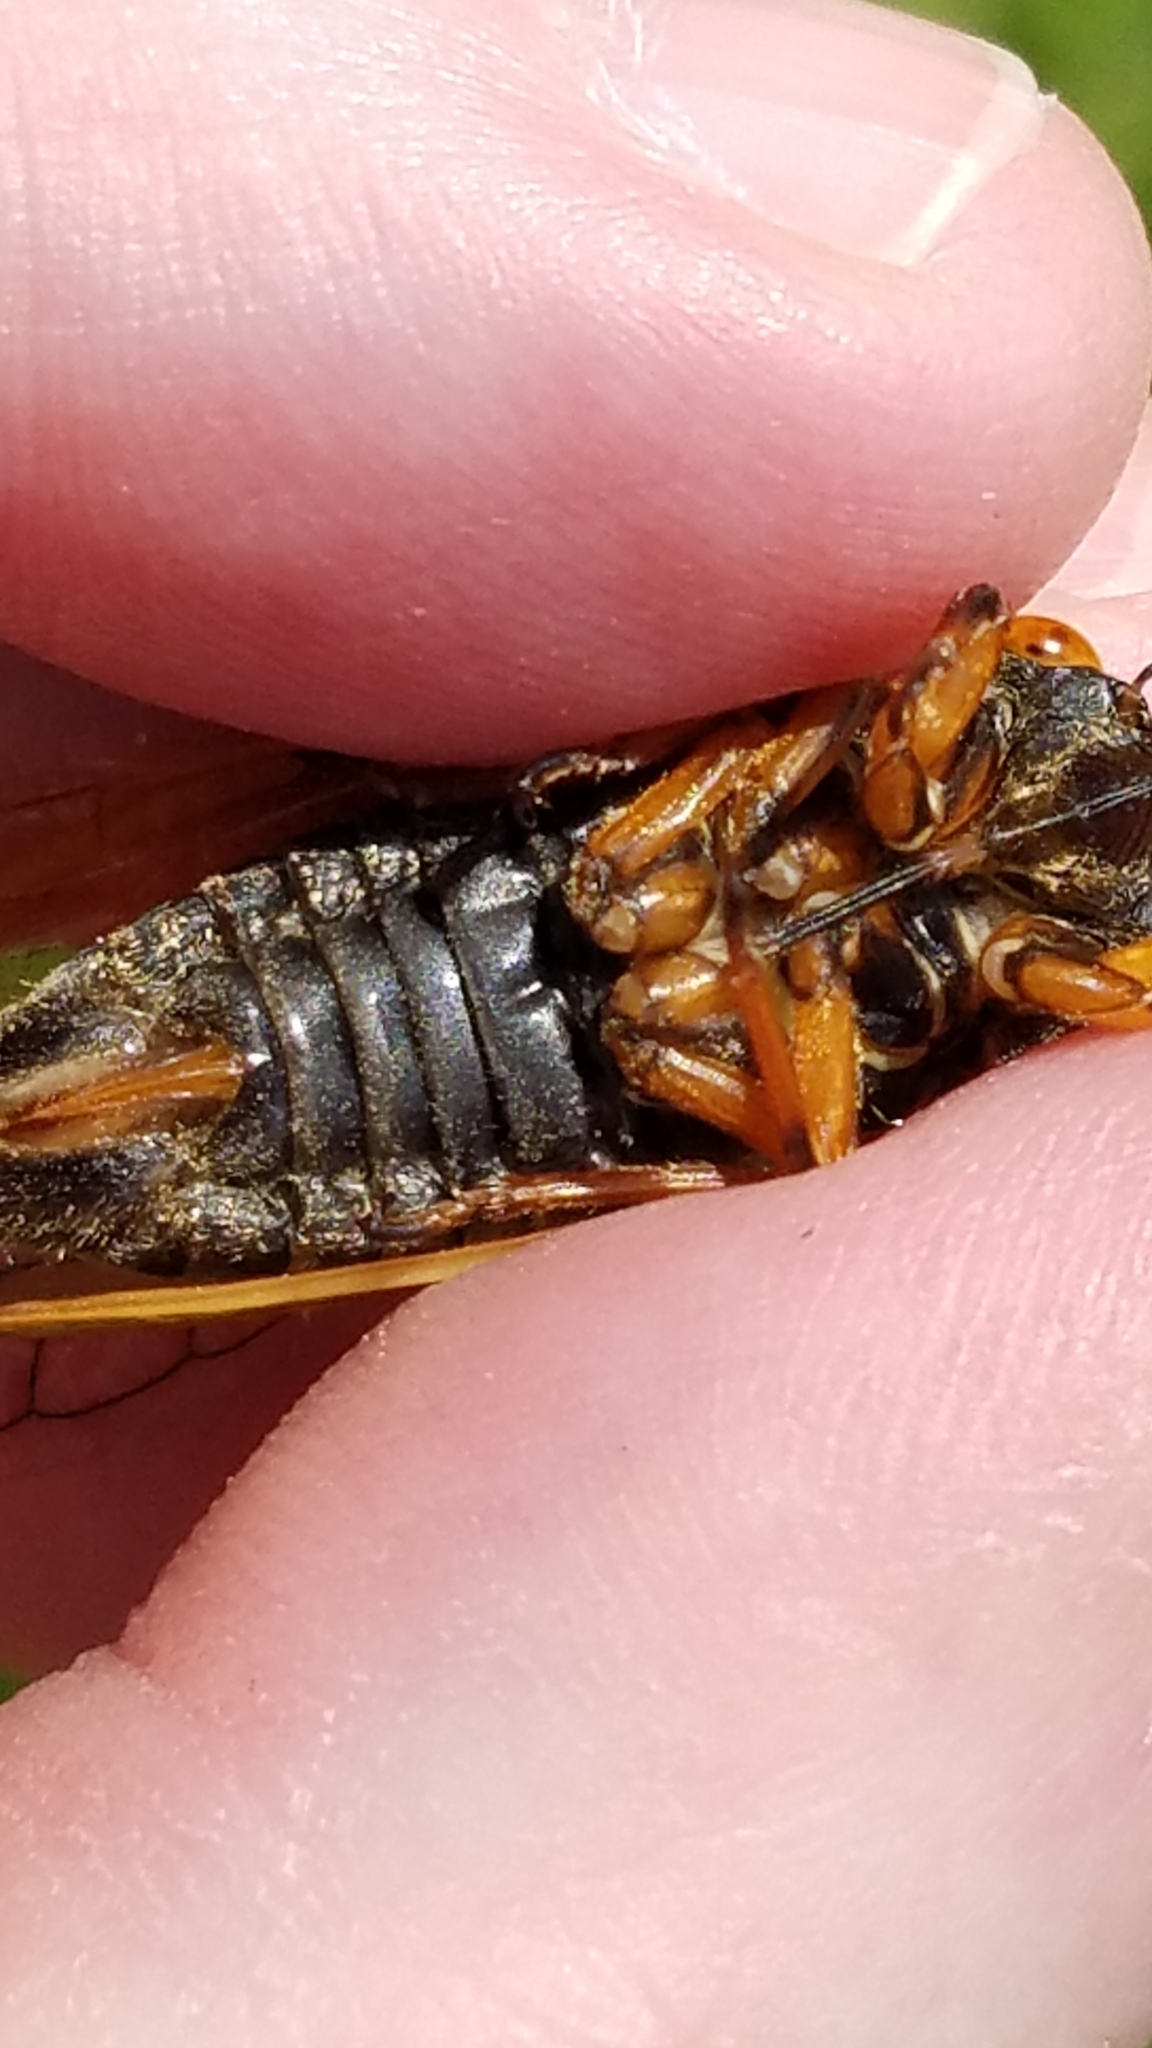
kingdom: Animalia
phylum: Arthropoda
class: Insecta
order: Hemiptera
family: Cicadidae
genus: Magicicada
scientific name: Magicicada cassini
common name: Cassin's 17-year cicada
